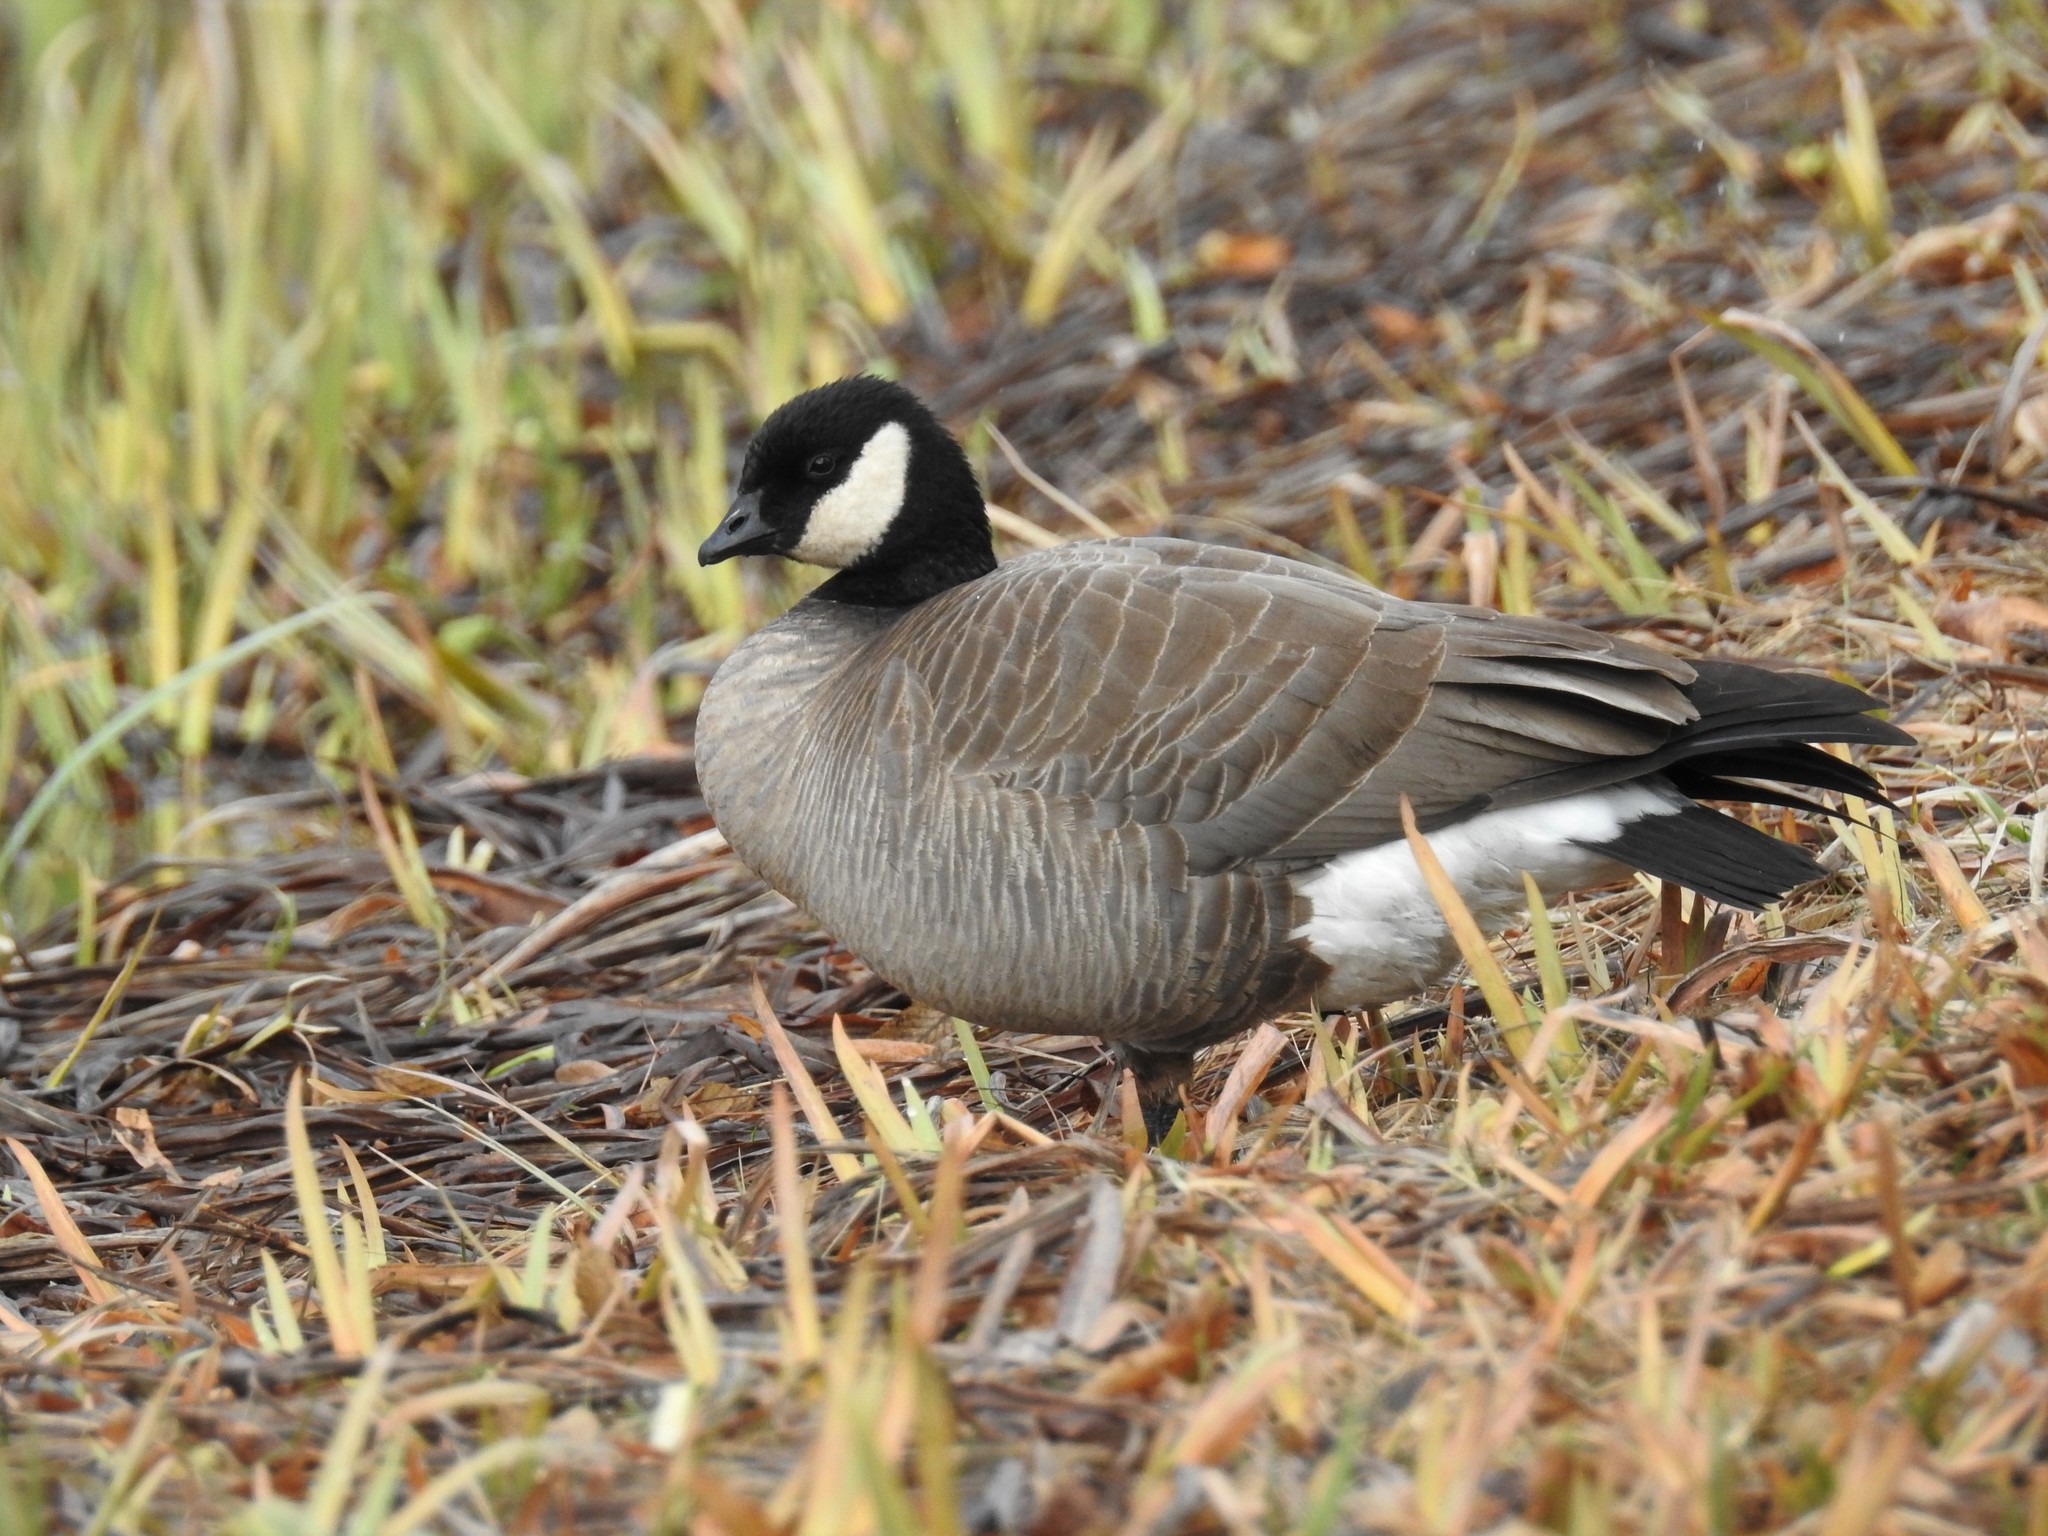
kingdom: Animalia
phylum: Chordata
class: Aves
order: Anseriformes
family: Anatidae
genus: Branta
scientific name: Branta hutchinsii
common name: Cackling goose
